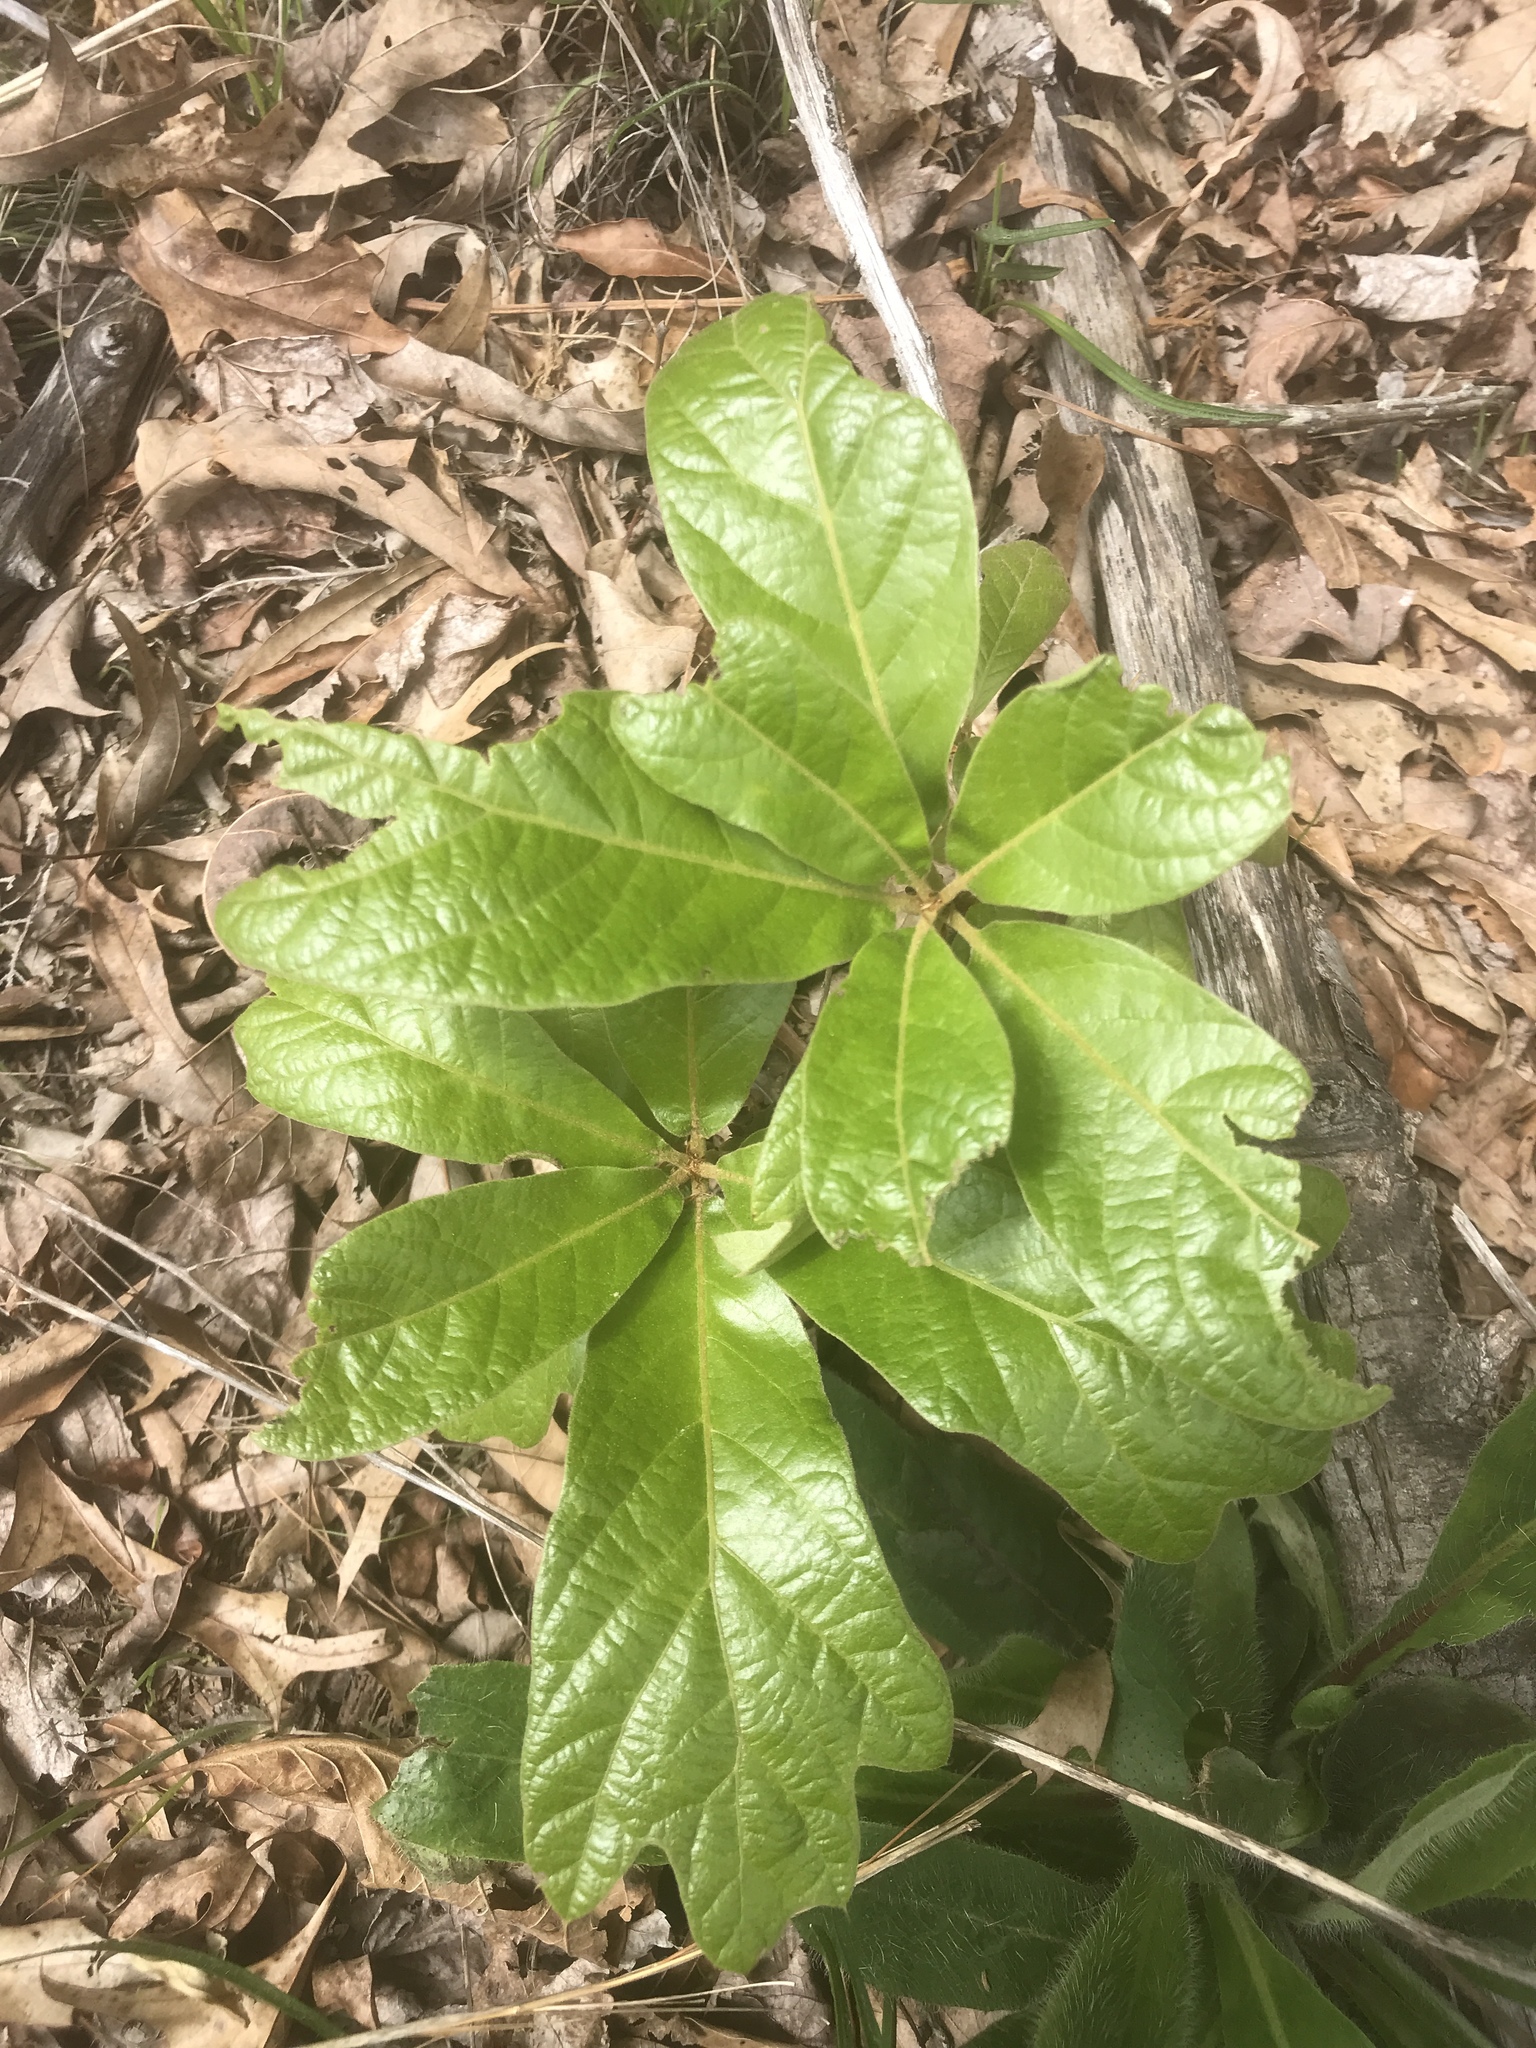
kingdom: Plantae
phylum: Tracheophyta
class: Magnoliopsida
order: Fagales
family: Fagaceae
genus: Quercus
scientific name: Quercus falcata
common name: Southern red oak
